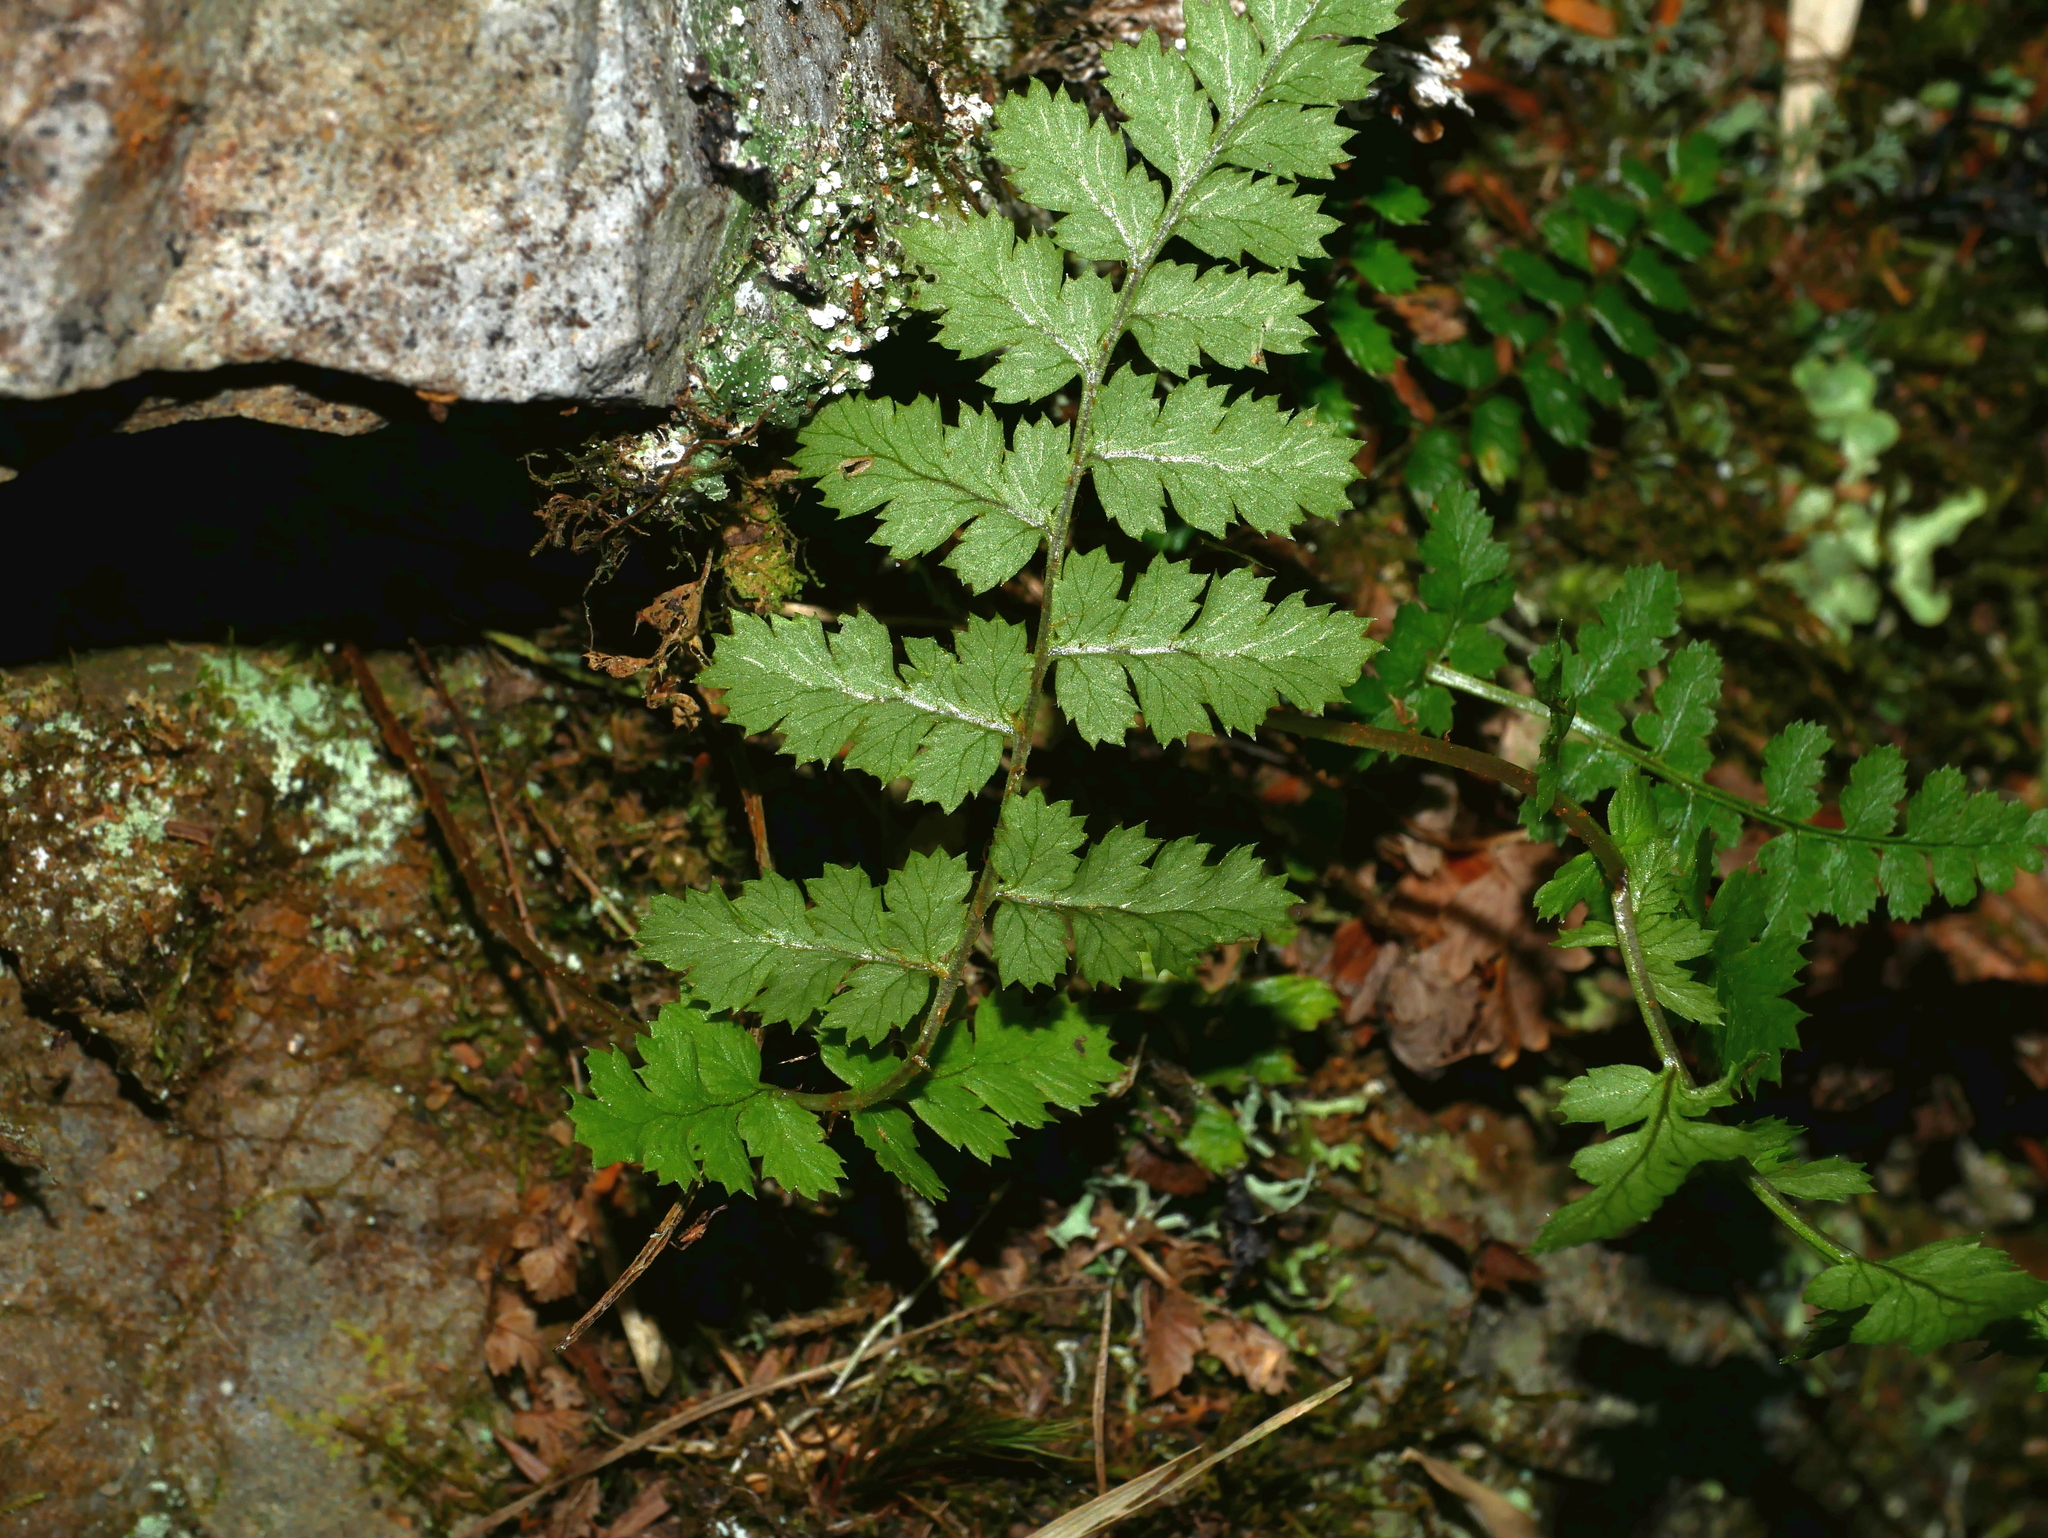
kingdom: Plantae
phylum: Tracheophyta
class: Polypodiopsida
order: Polypodiales
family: Dryopteridaceae
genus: Dryopteris
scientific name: Dryopteris serratodentata
